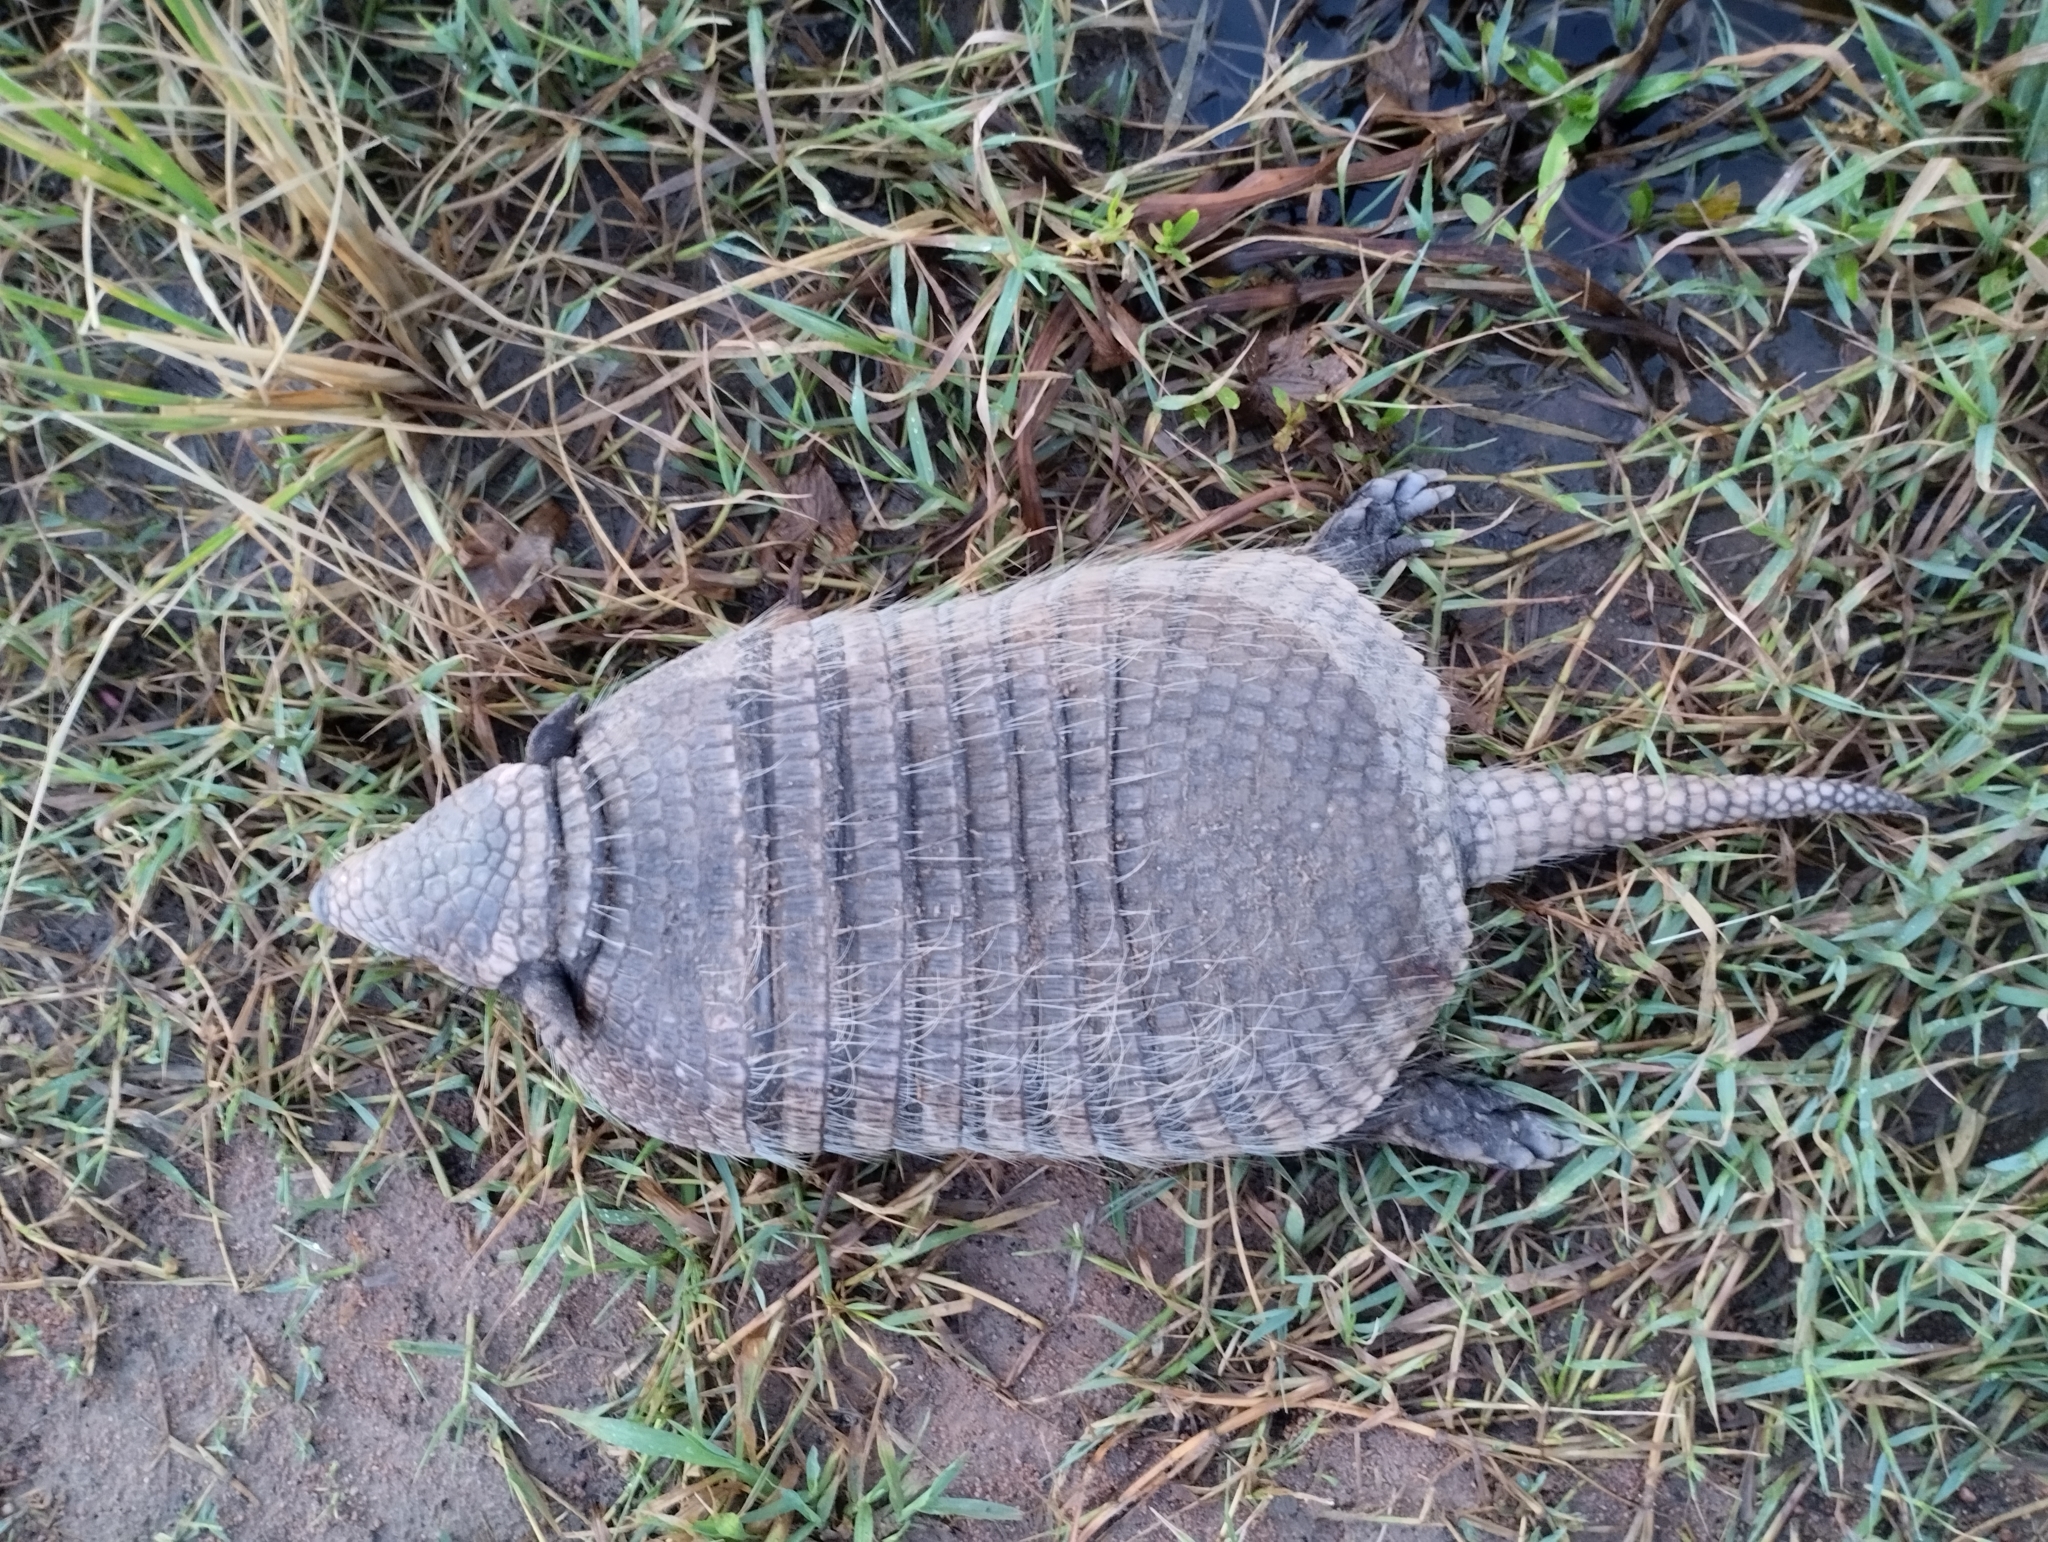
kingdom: Animalia
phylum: Chordata
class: Mammalia
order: Cingulata
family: Dasypodidae
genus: Euphractus
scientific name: Euphractus sexcinctus
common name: Six-banded armadillo
